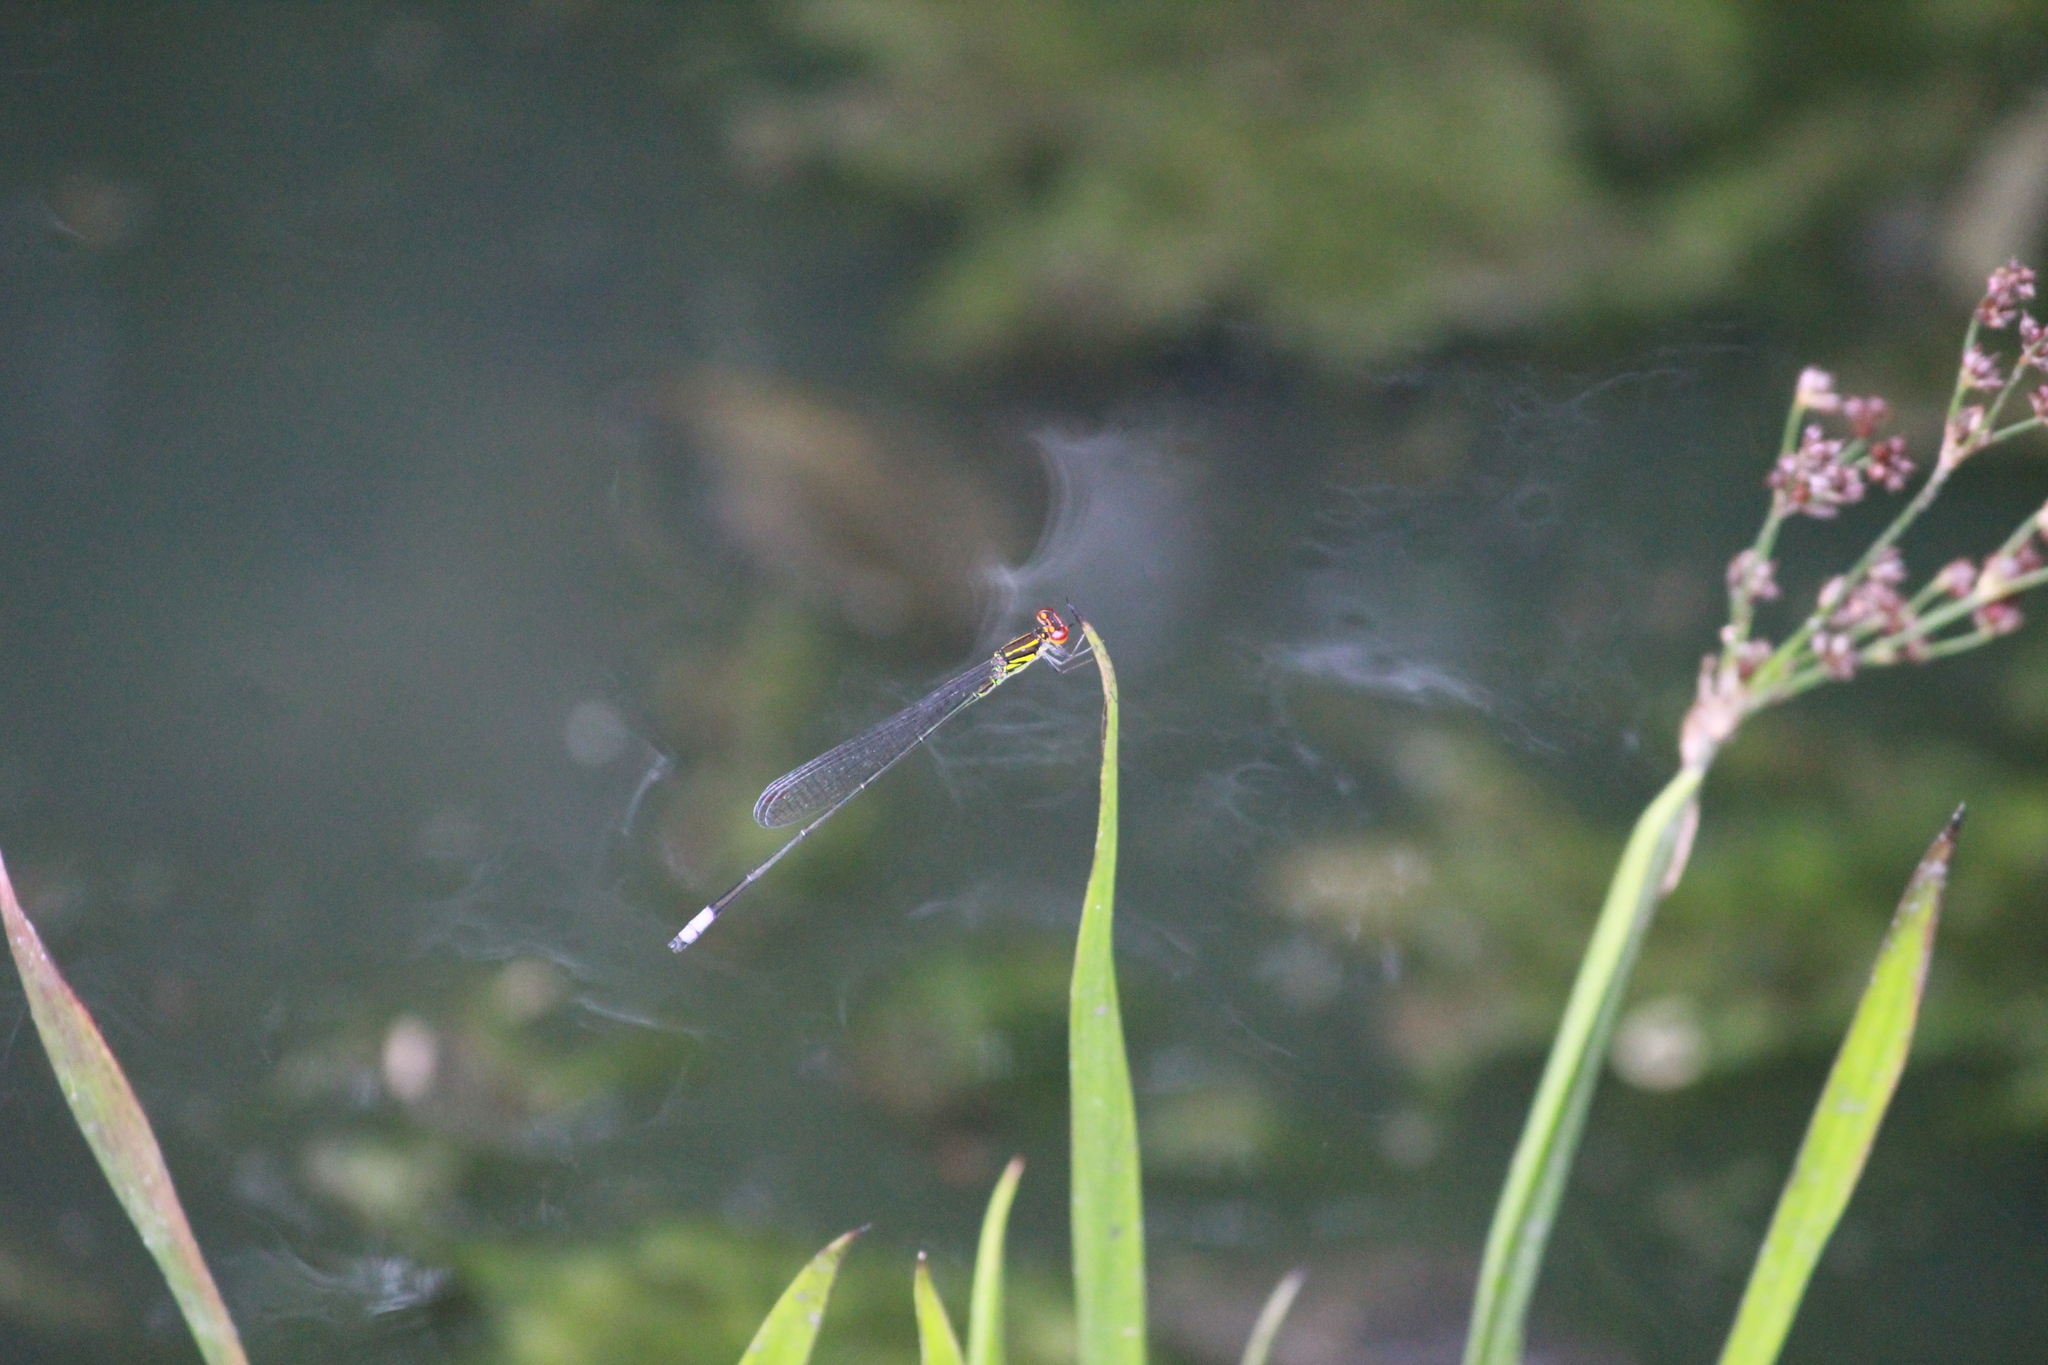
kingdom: Animalia
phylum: Arthropoda
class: Insecta
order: Odonata
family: Coenagrionidae
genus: Pseudagrion
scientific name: Pseudagrion hageni
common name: Painted sprite
